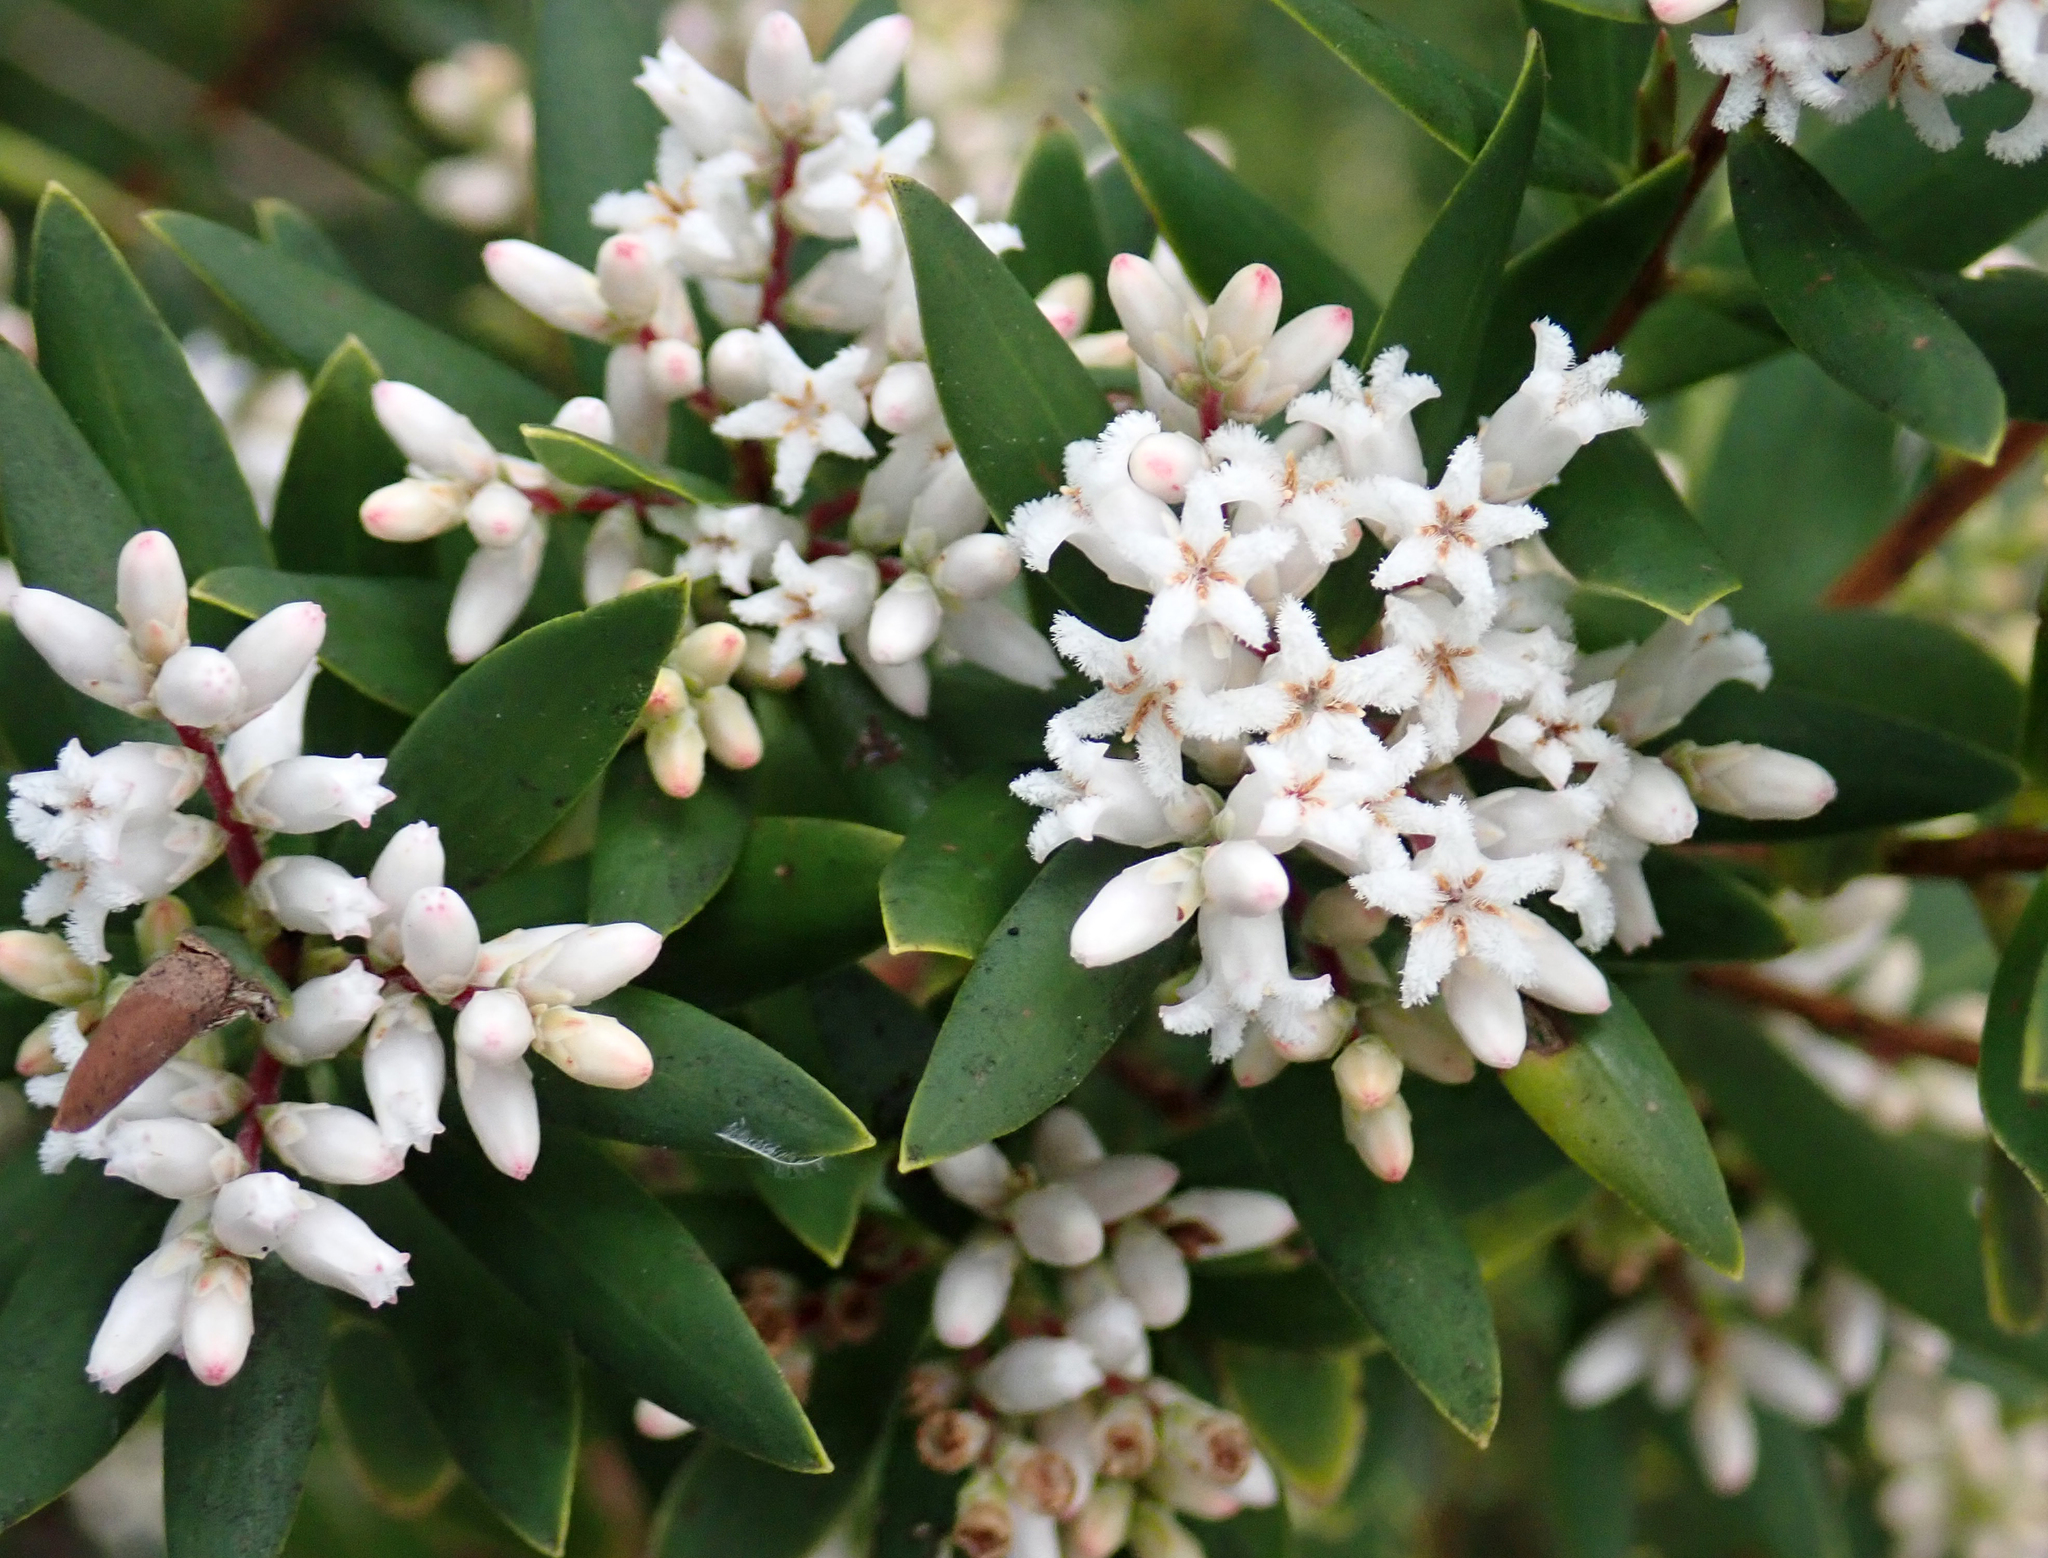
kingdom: Plantae
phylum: Tracheophyta
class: Magnoliopsida
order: Ericales
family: Ericaceae
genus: Leptecophylla
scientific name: Leptecophylla parvifolia
